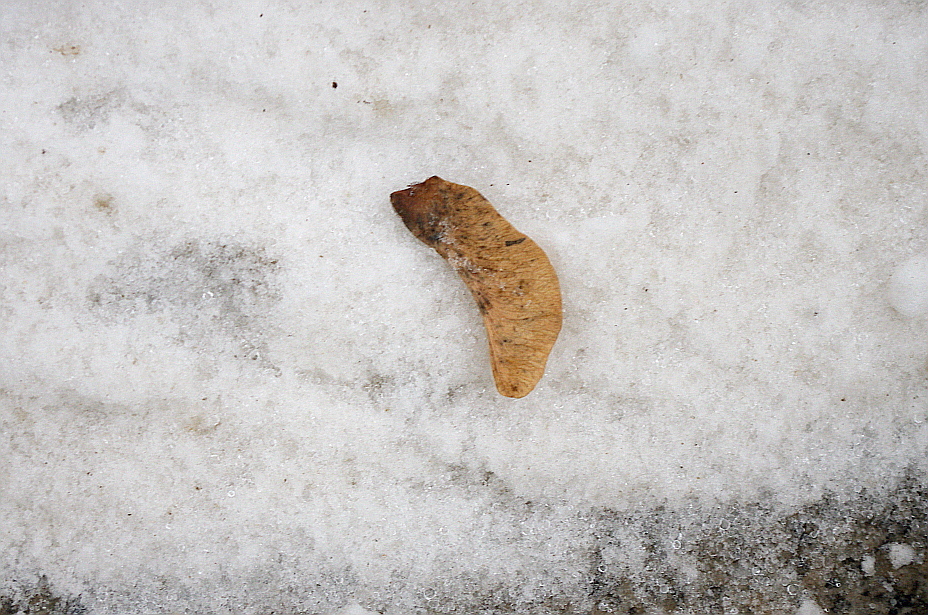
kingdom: Plantae
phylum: Tracheophyta
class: Magnoliopsida
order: Sapindales
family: Sapindaceae
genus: Acer
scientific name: Acer platanoides
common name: Norway maple
